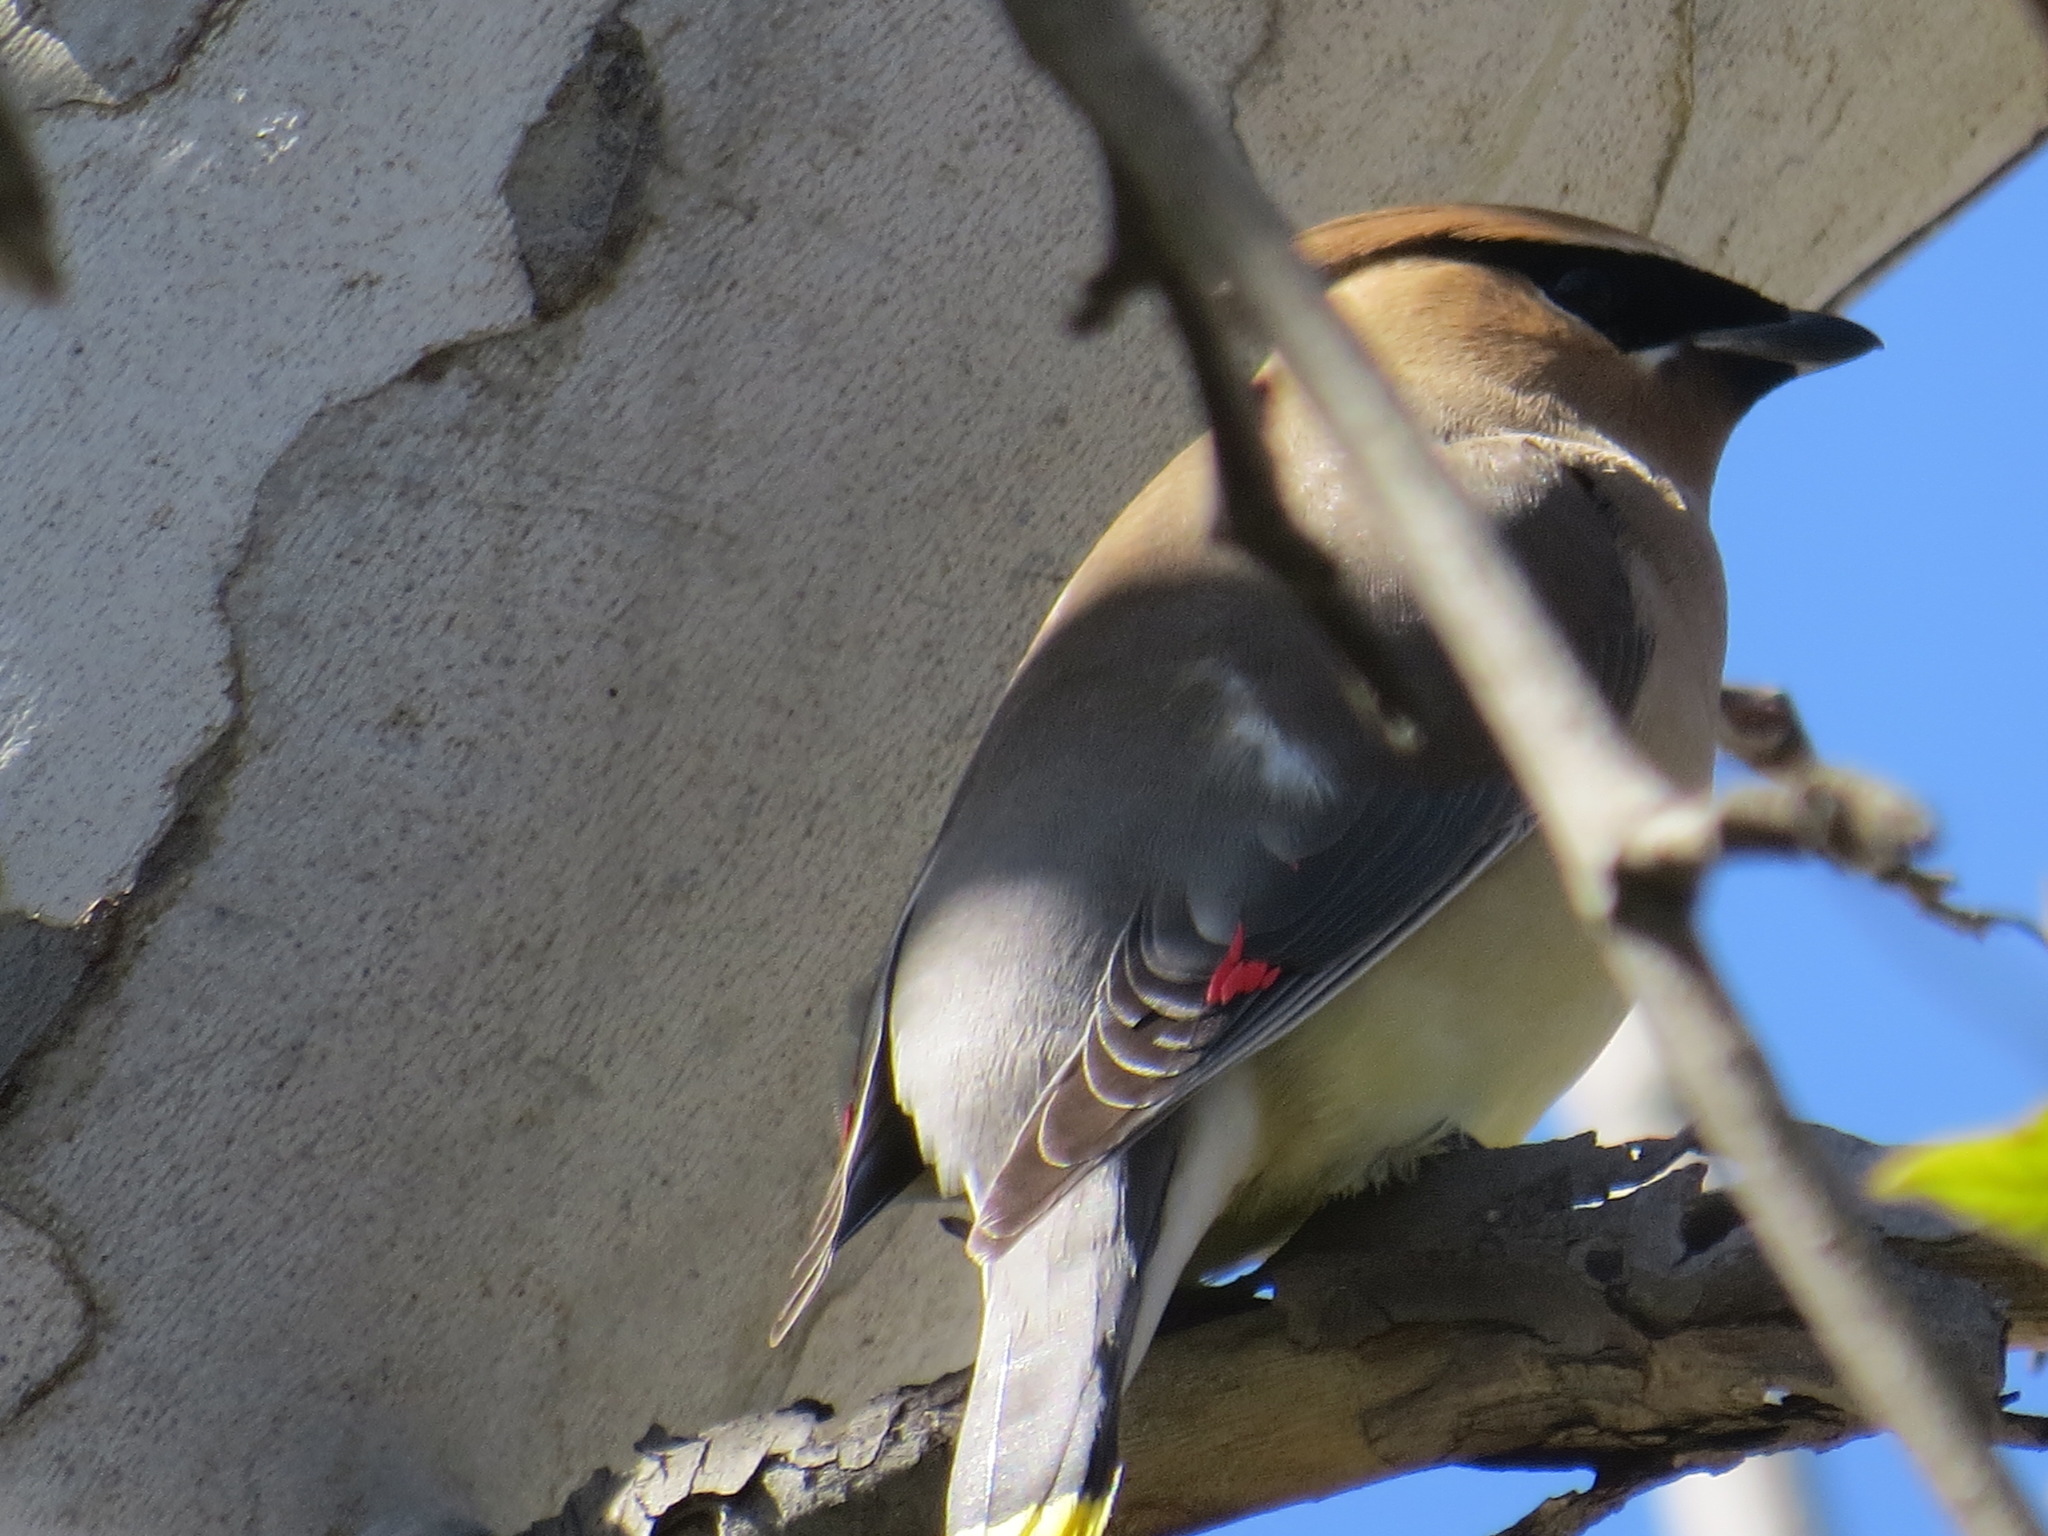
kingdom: Animalia
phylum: Chordata
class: Aves
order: Passeriformes
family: Bombycillidae
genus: Bombycilla
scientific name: Bombycilla cedrorum
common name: Cedar waxwing
